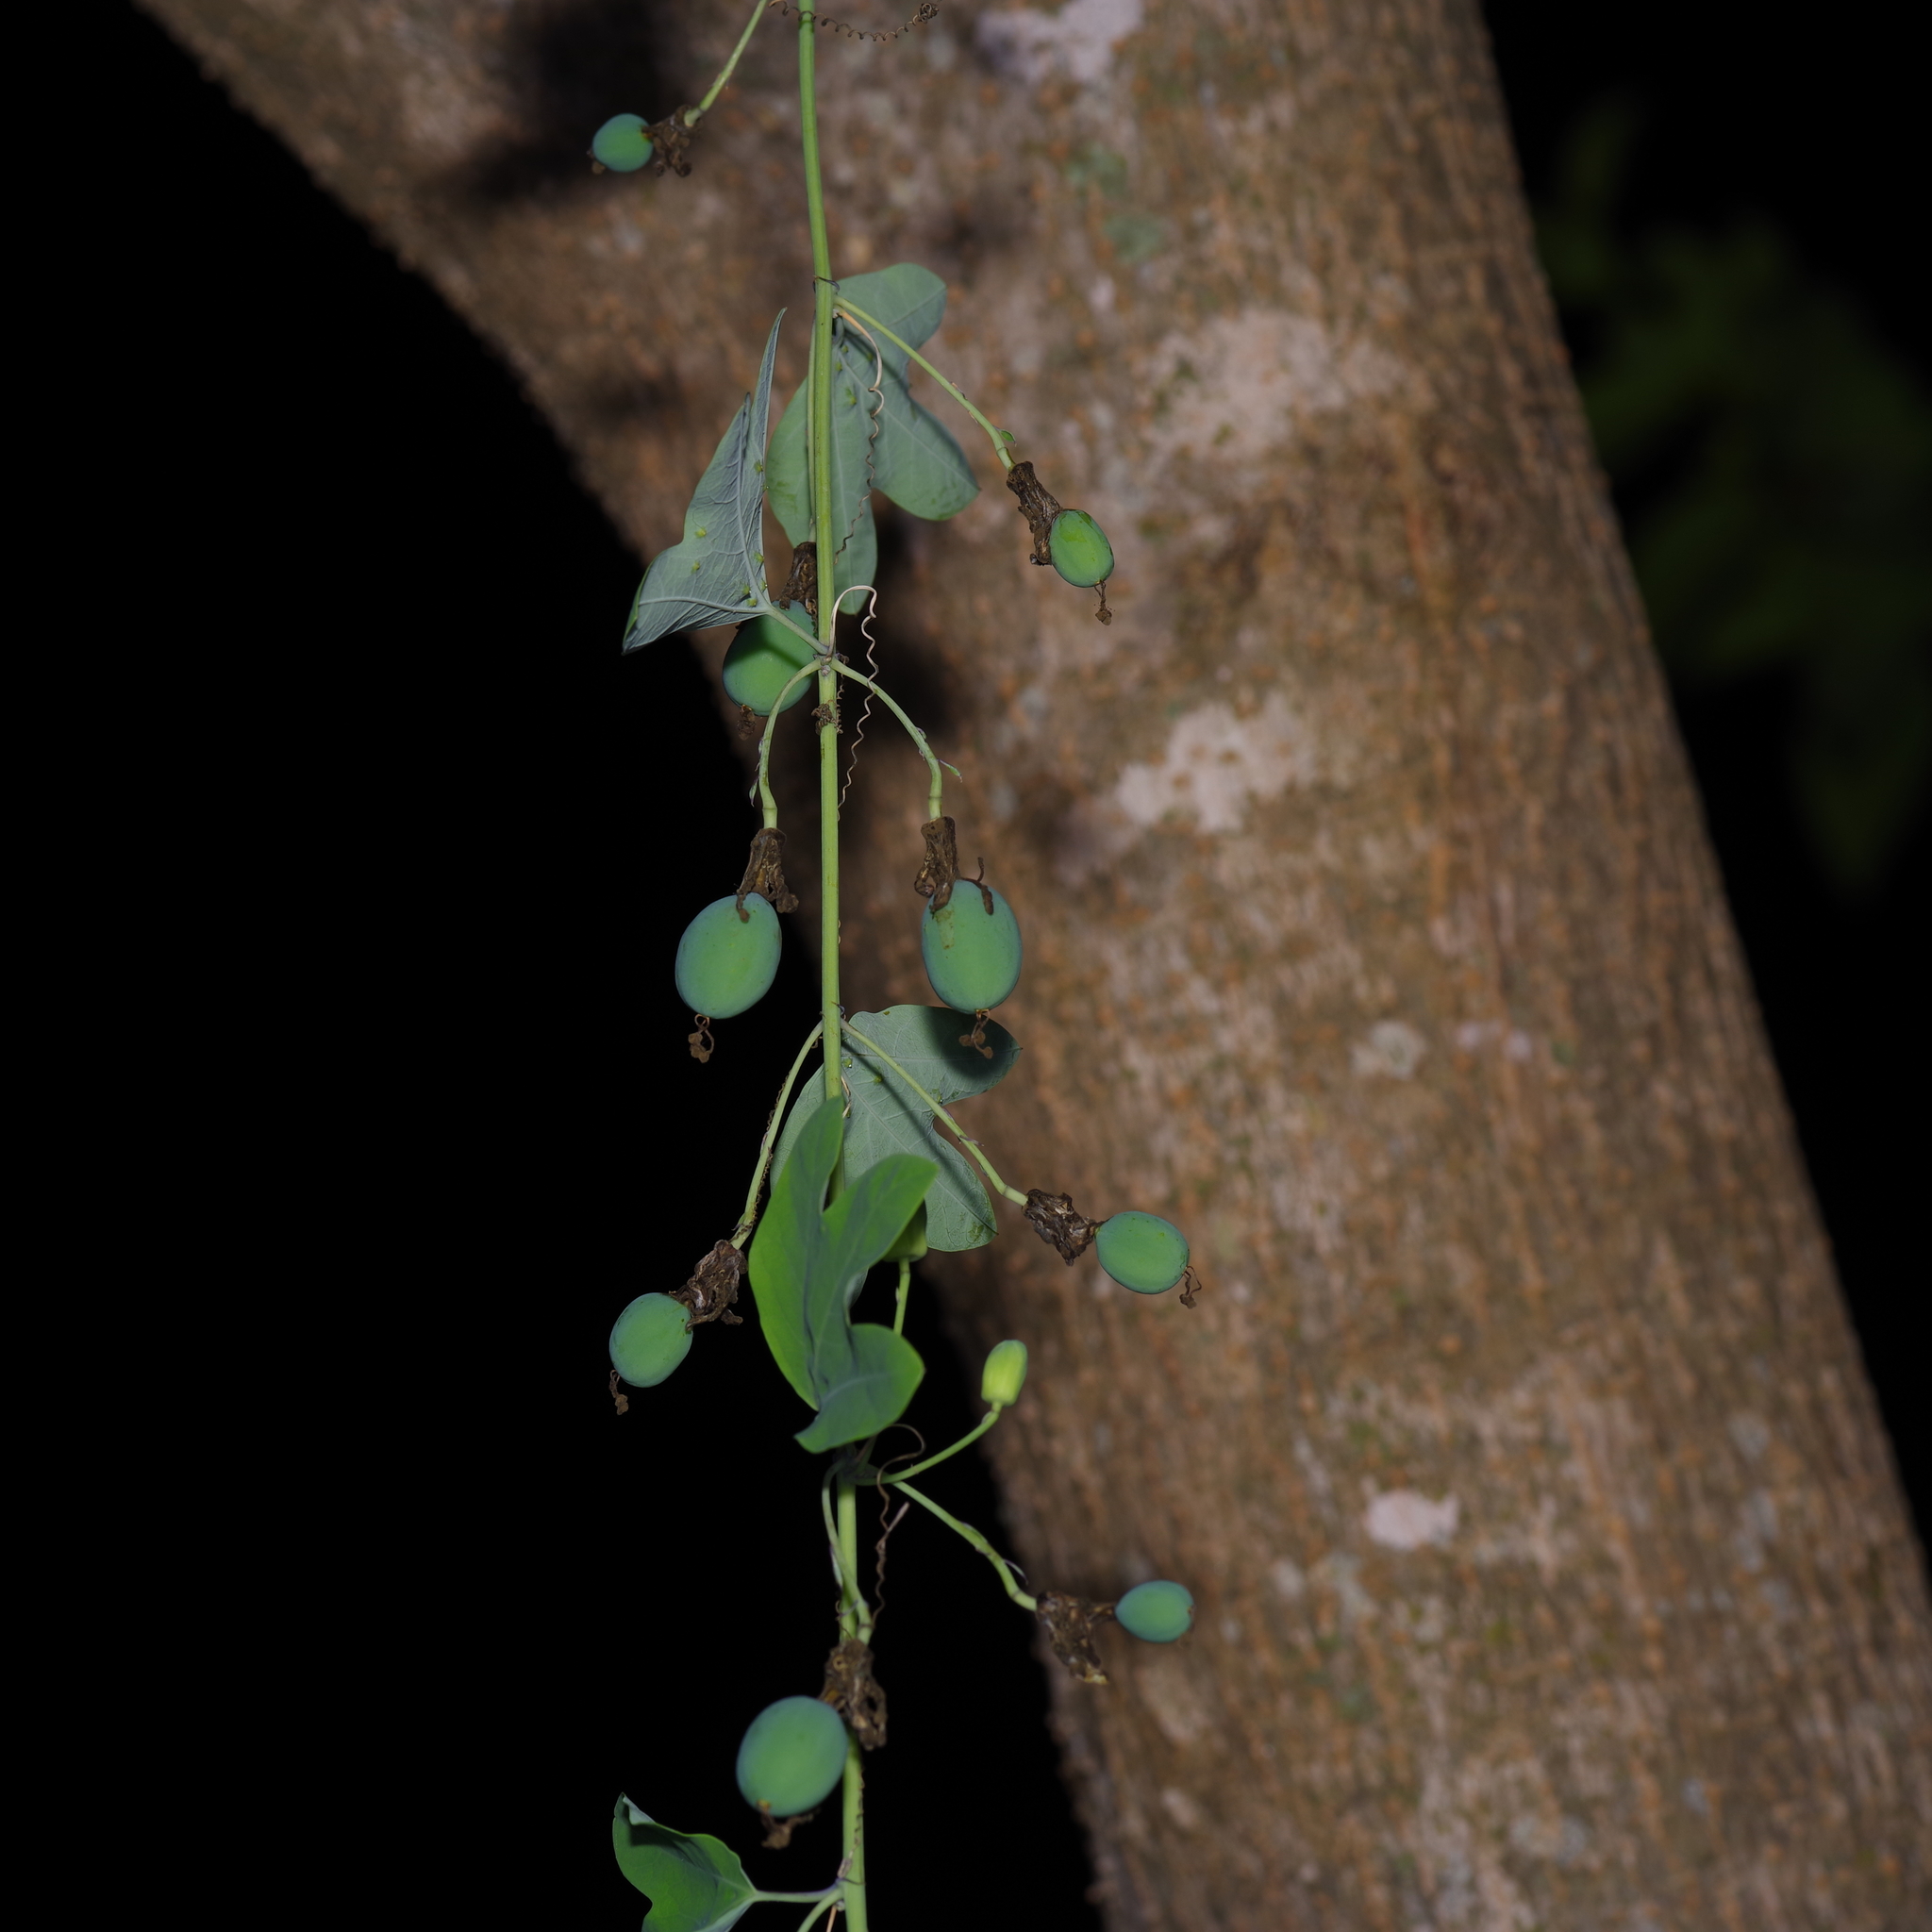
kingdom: Plantae
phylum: Tracheophyta
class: Magnoliopsida
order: Malpighiales
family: Passifloraceae
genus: Passiflora
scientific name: Passiflora affinis
